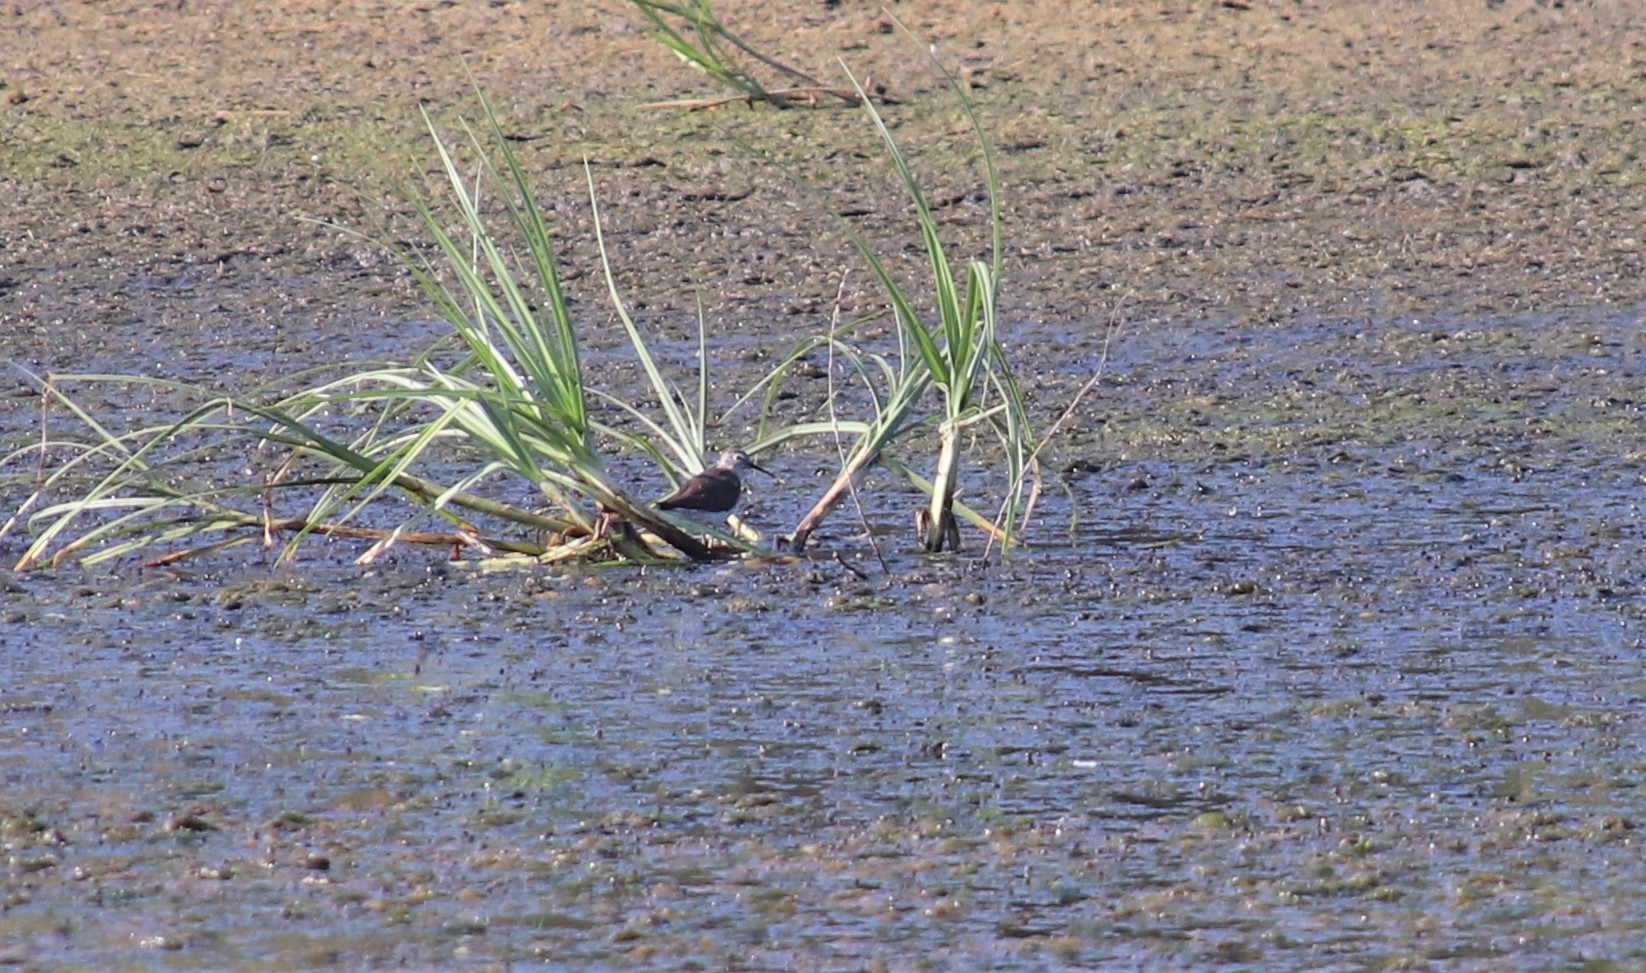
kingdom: Animalia
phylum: Chordata
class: Aves
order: Charadriiformes
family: Scolopacidae
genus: Tringa
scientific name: Tringa solitaria
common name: Solitary sandpiper
